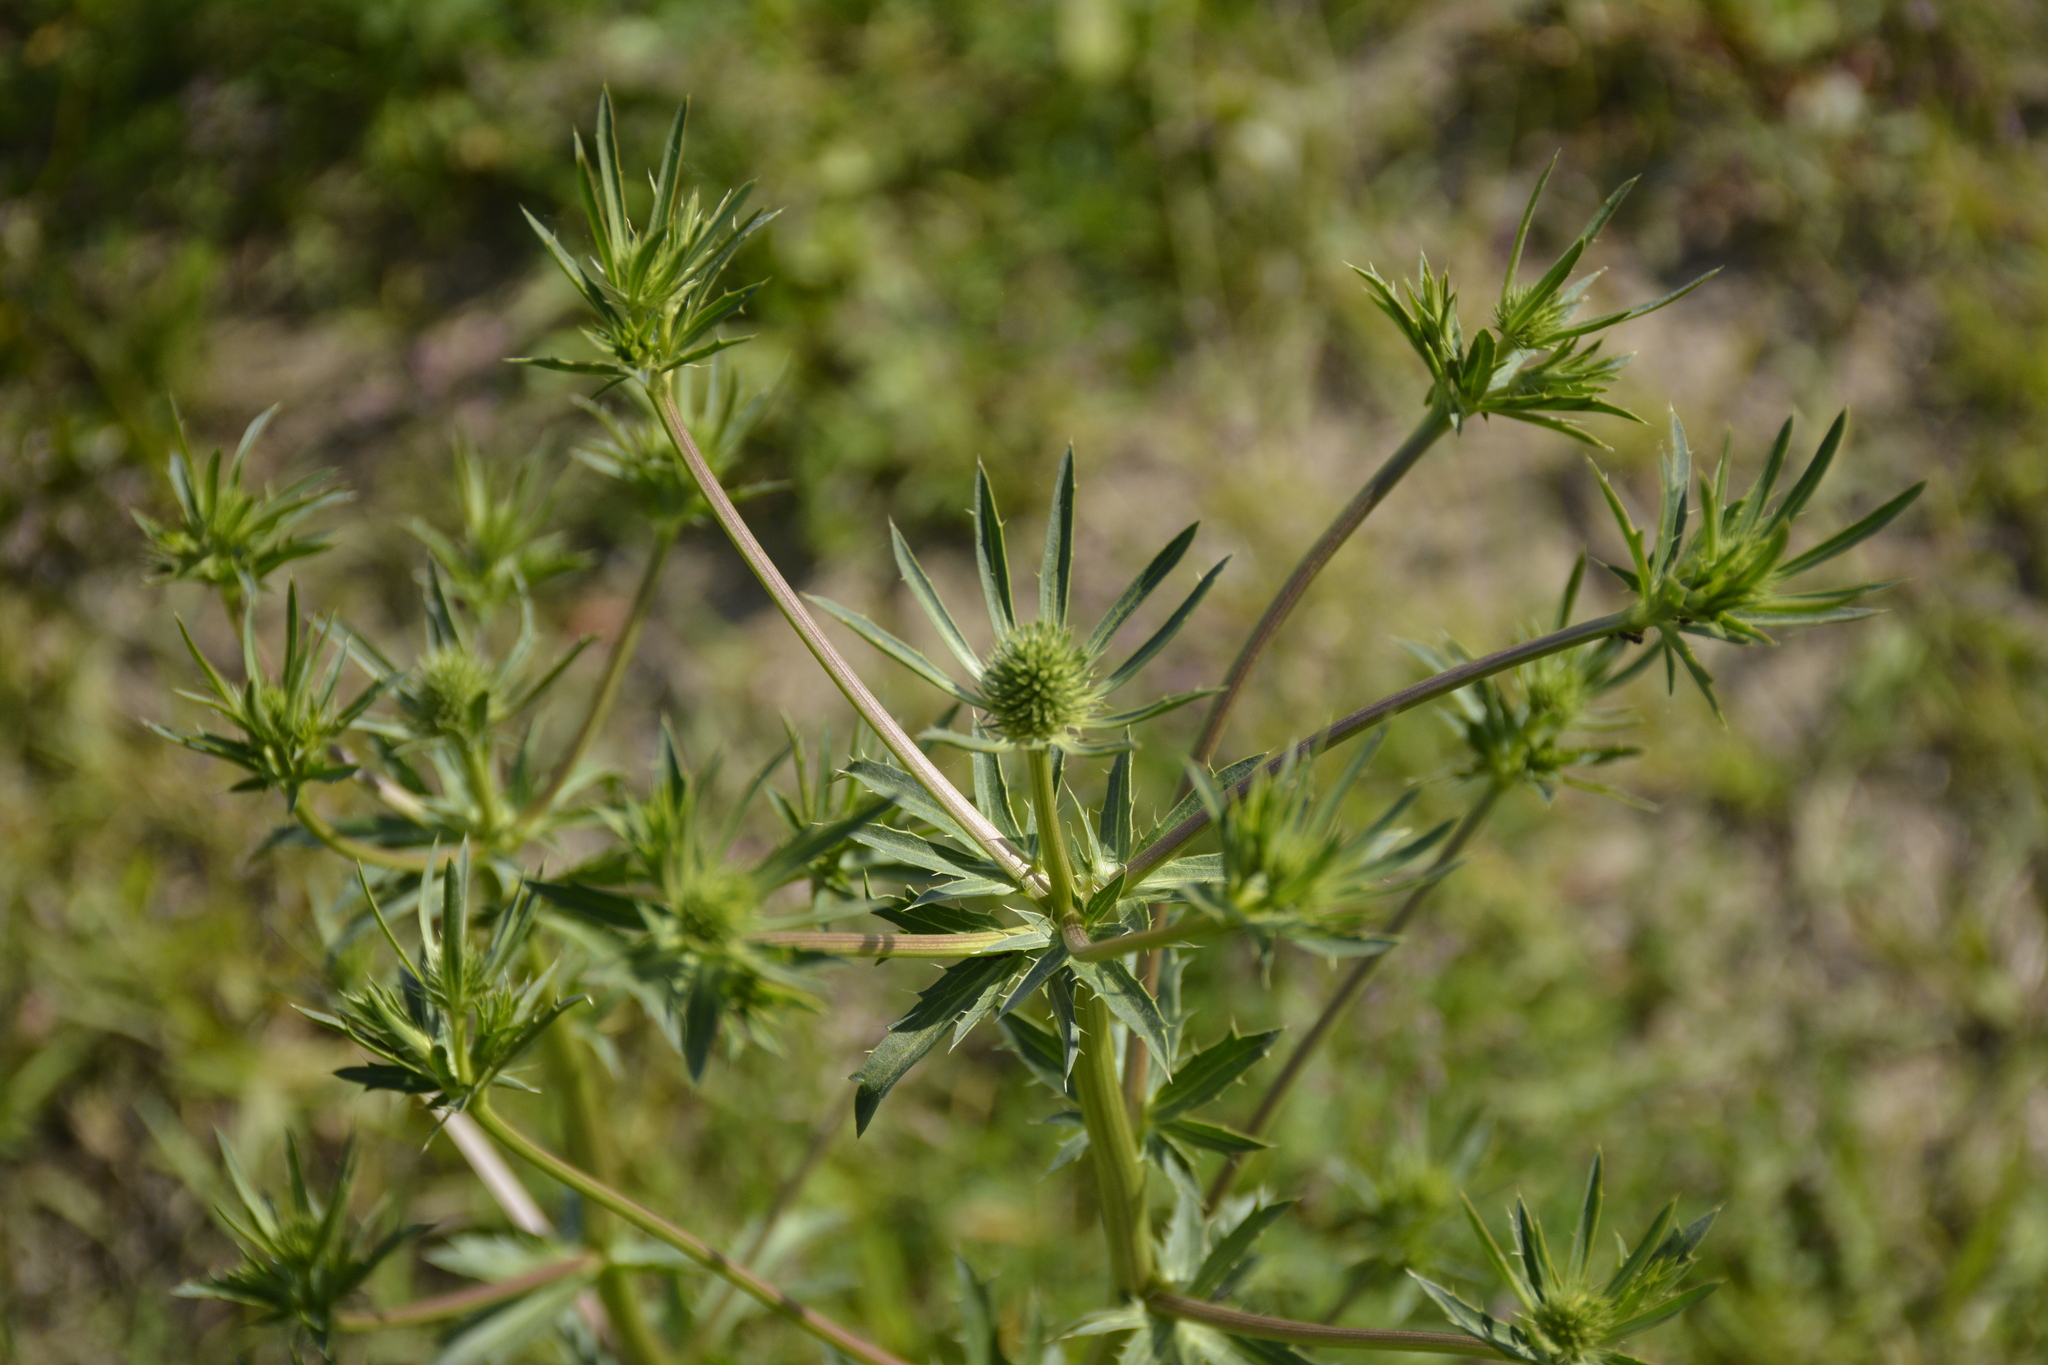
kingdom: Plantae
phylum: Tracheophyta
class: Magnoliopsida
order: Apiales
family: Apiaceae
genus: Eryngium
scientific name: Eryngium planum
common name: Blue eryngo
